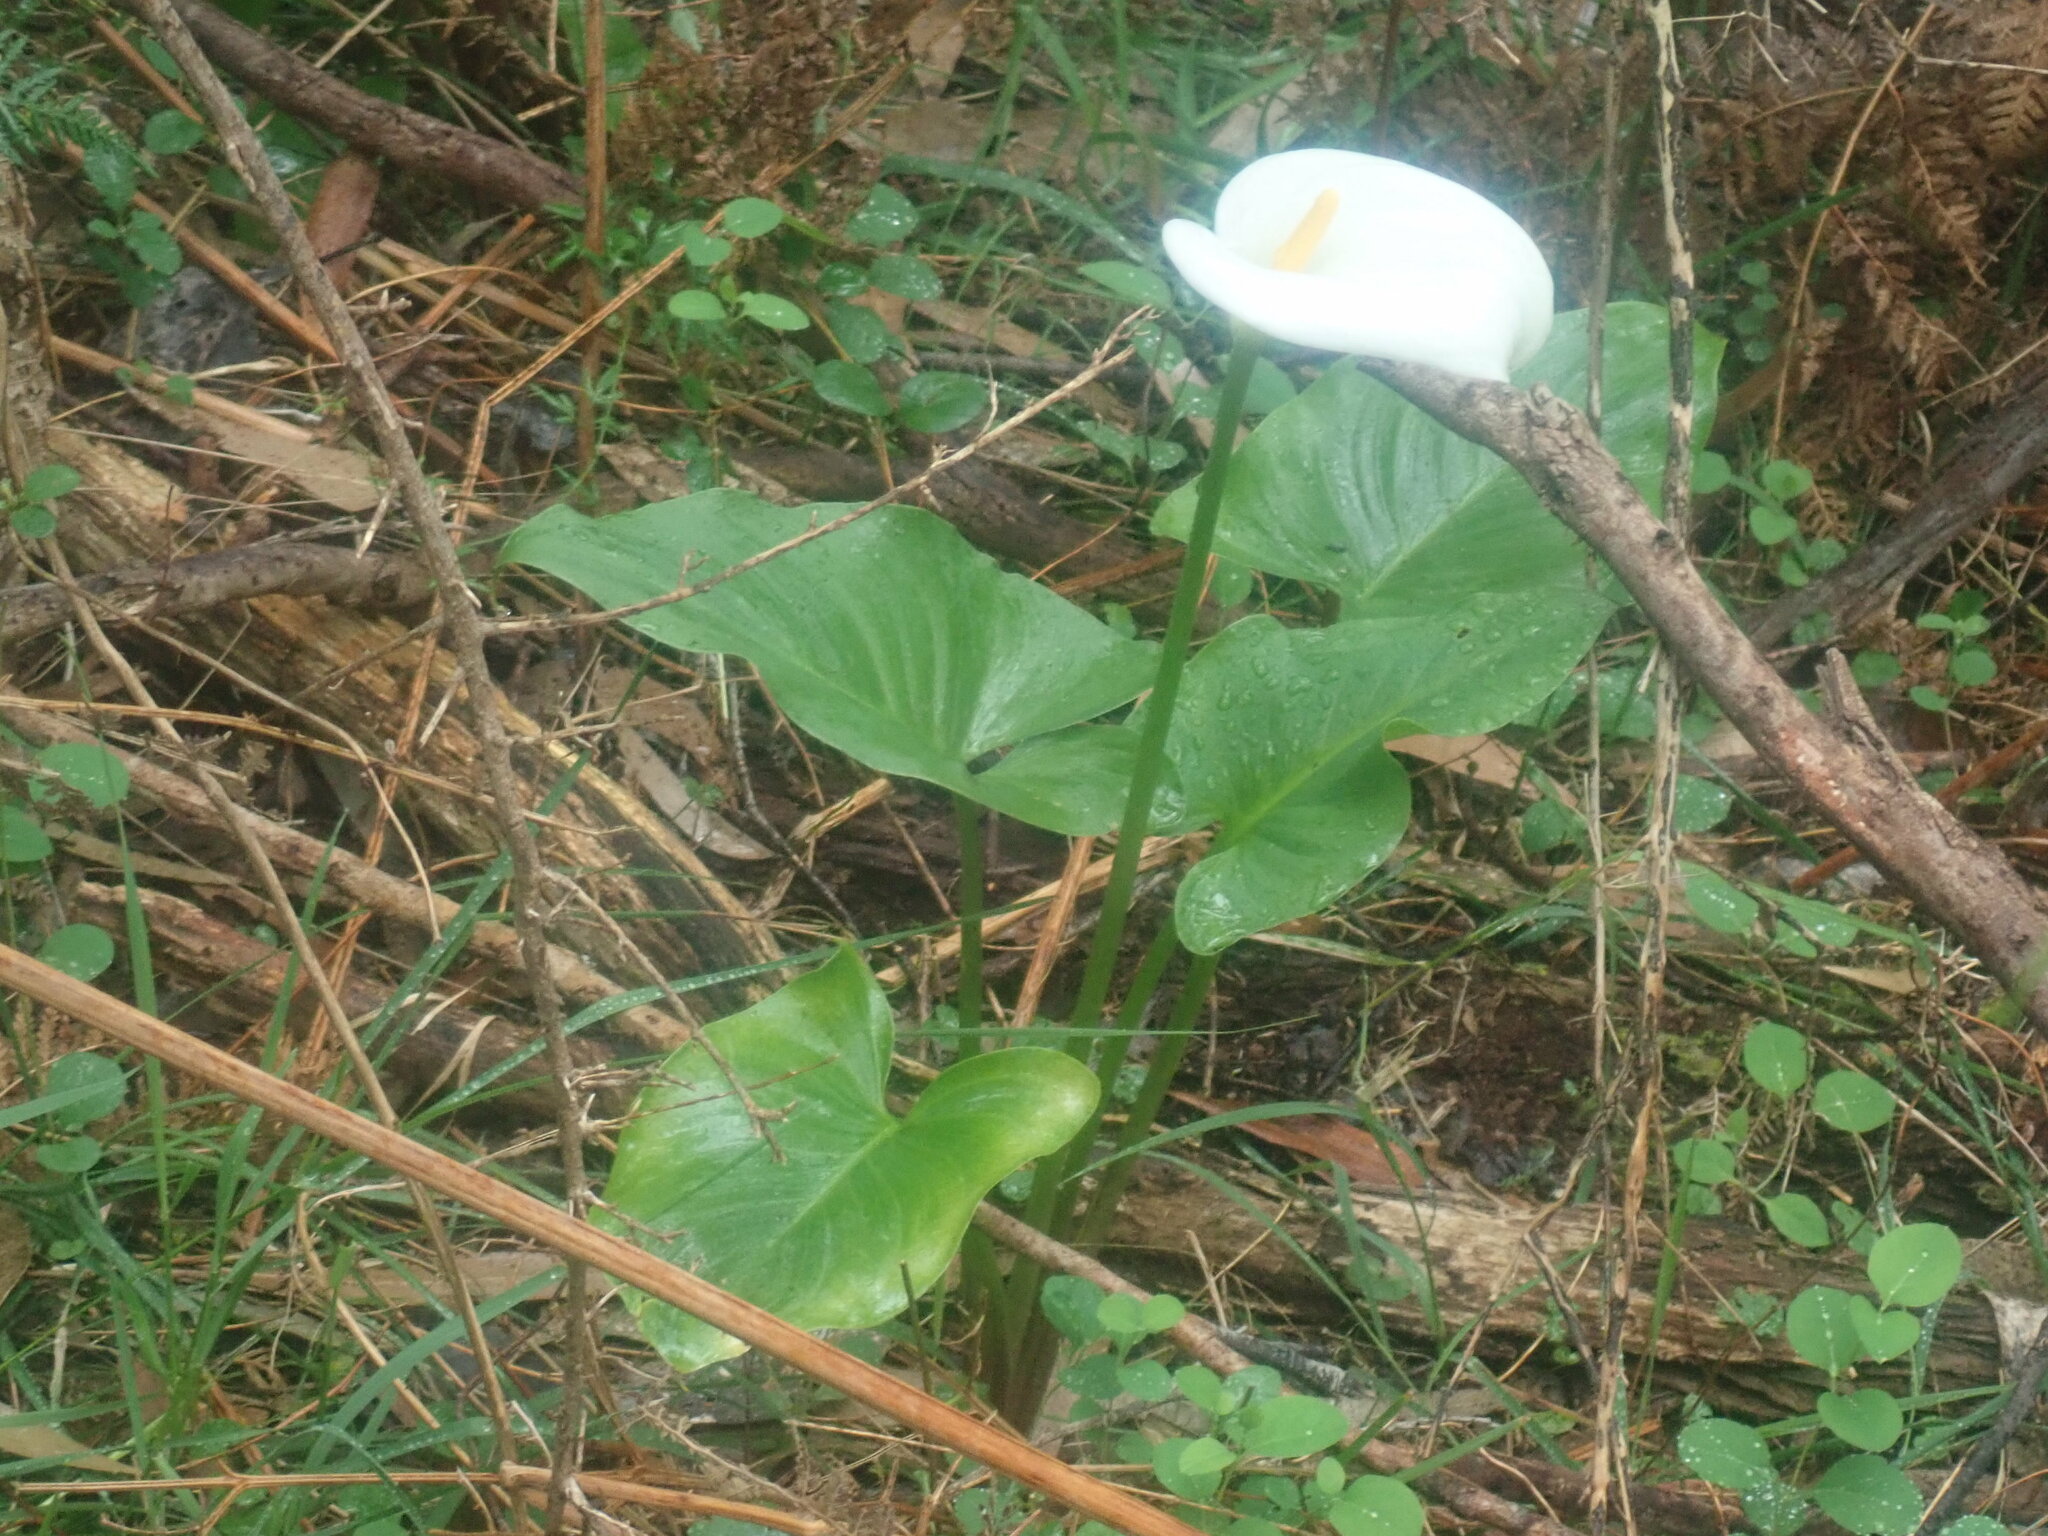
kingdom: Plantae
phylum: Tracheophyta
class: Liliopsida
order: Alismatales
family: Araceae
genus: Zantedeschia
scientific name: Zantedeschia aethiopica
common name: Altar-lily
